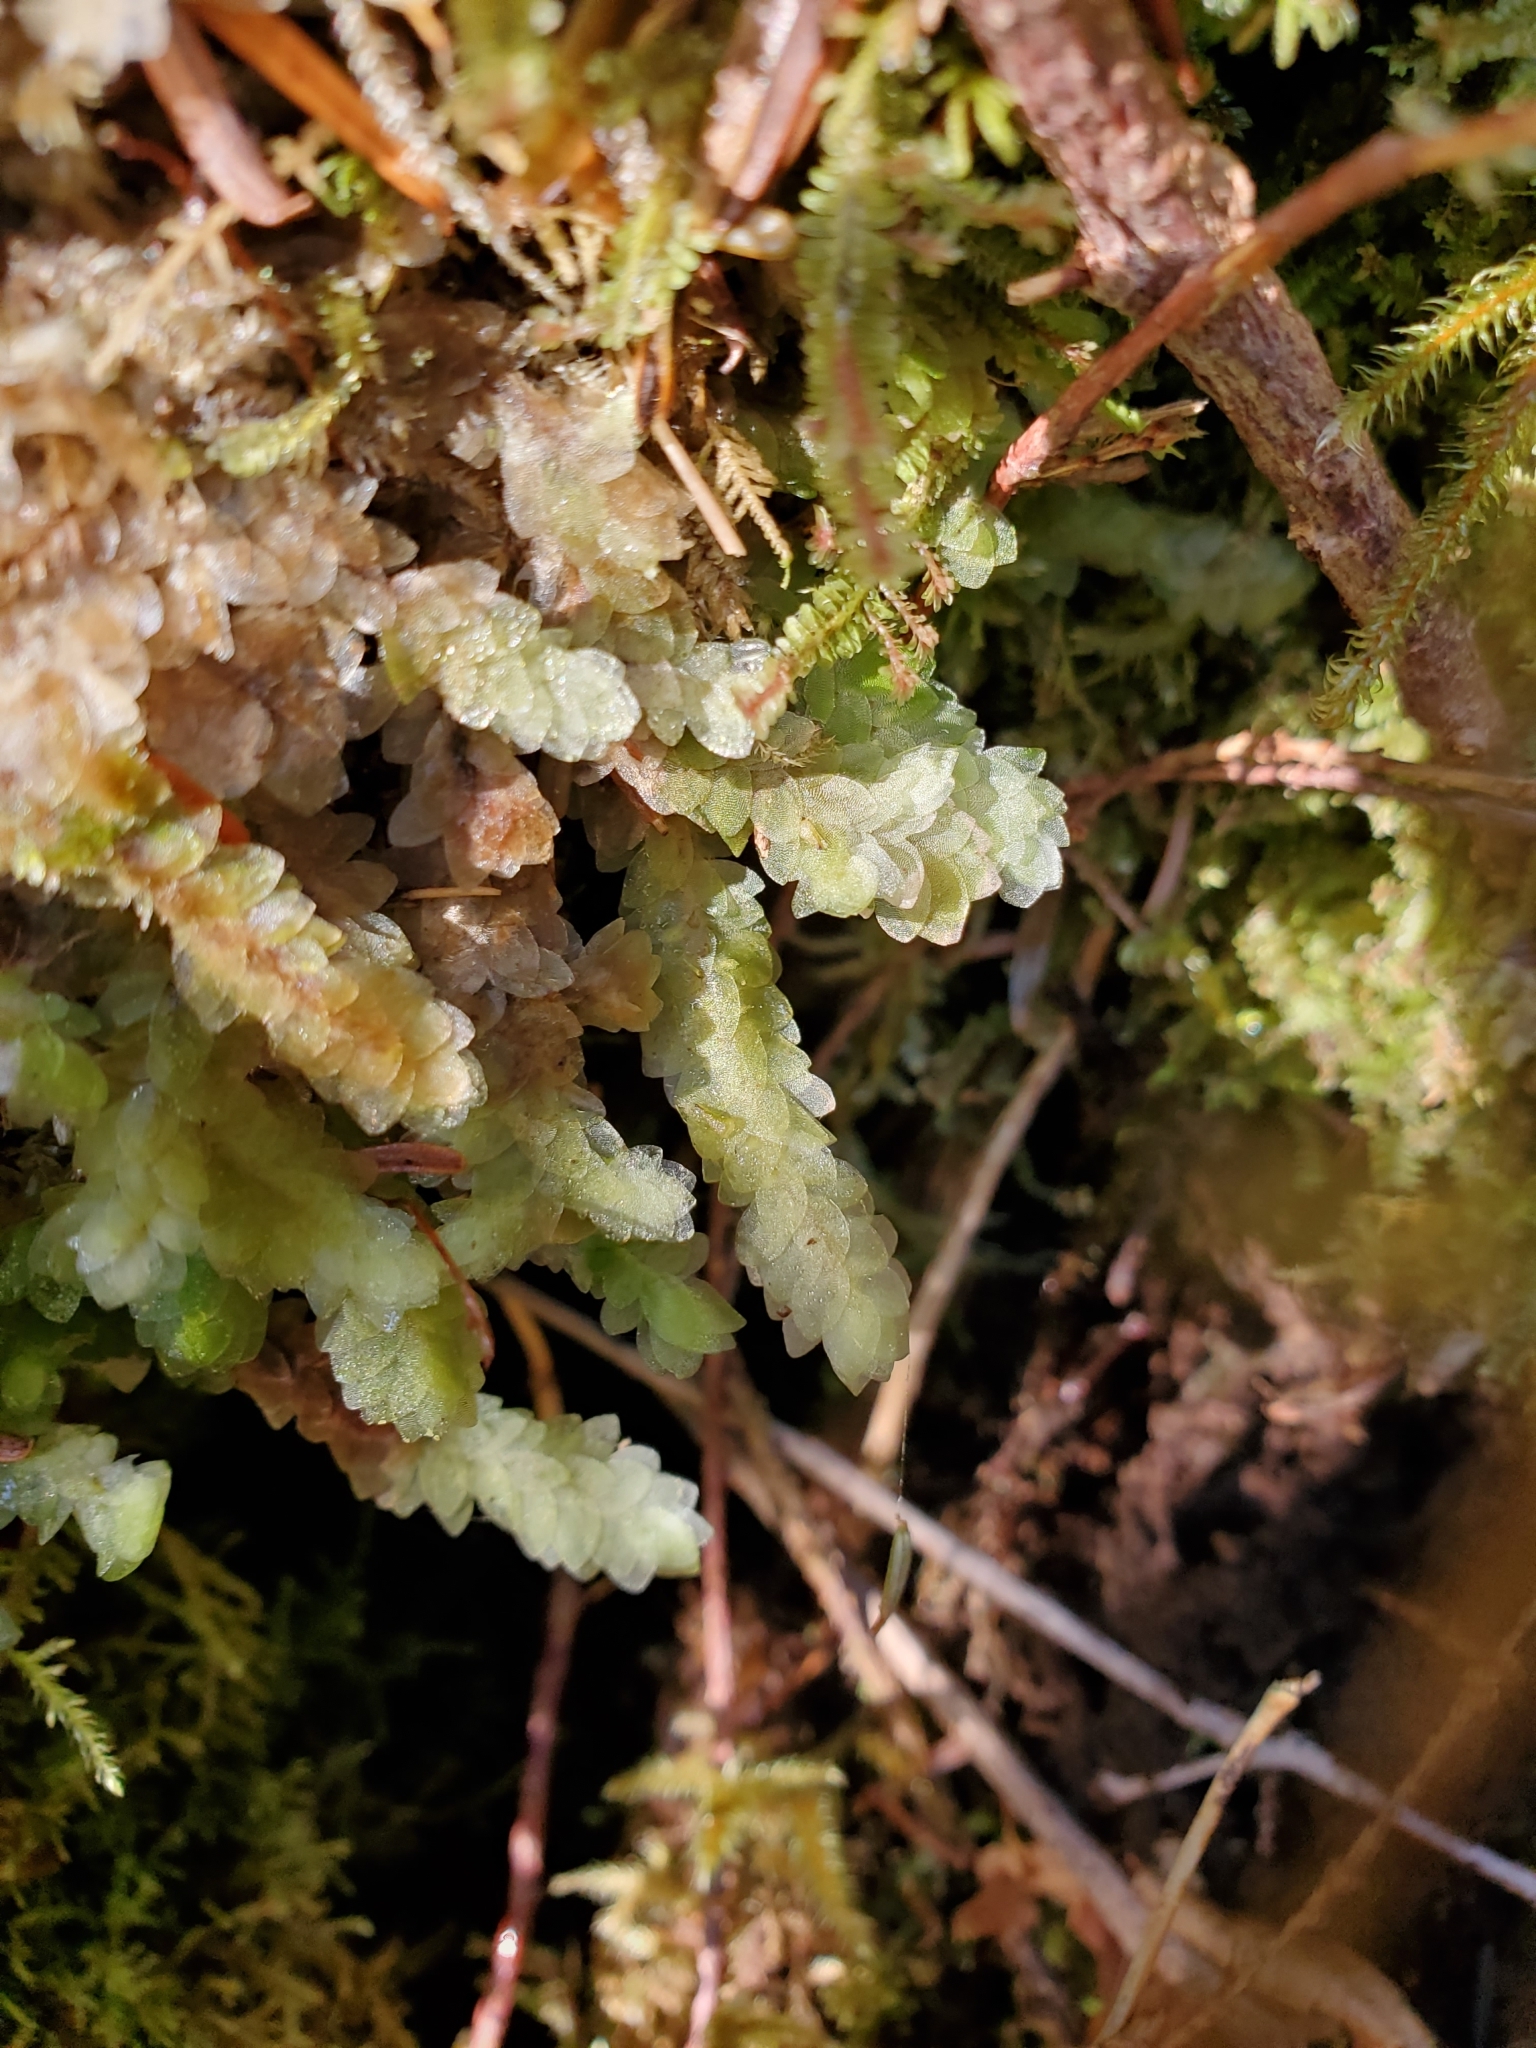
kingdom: Plantae
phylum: Bryophyta
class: Bryopsida
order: Hookeriales
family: Hookeriaceae
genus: Hookeria
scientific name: Hookeria lucens
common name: Shining hookeria
